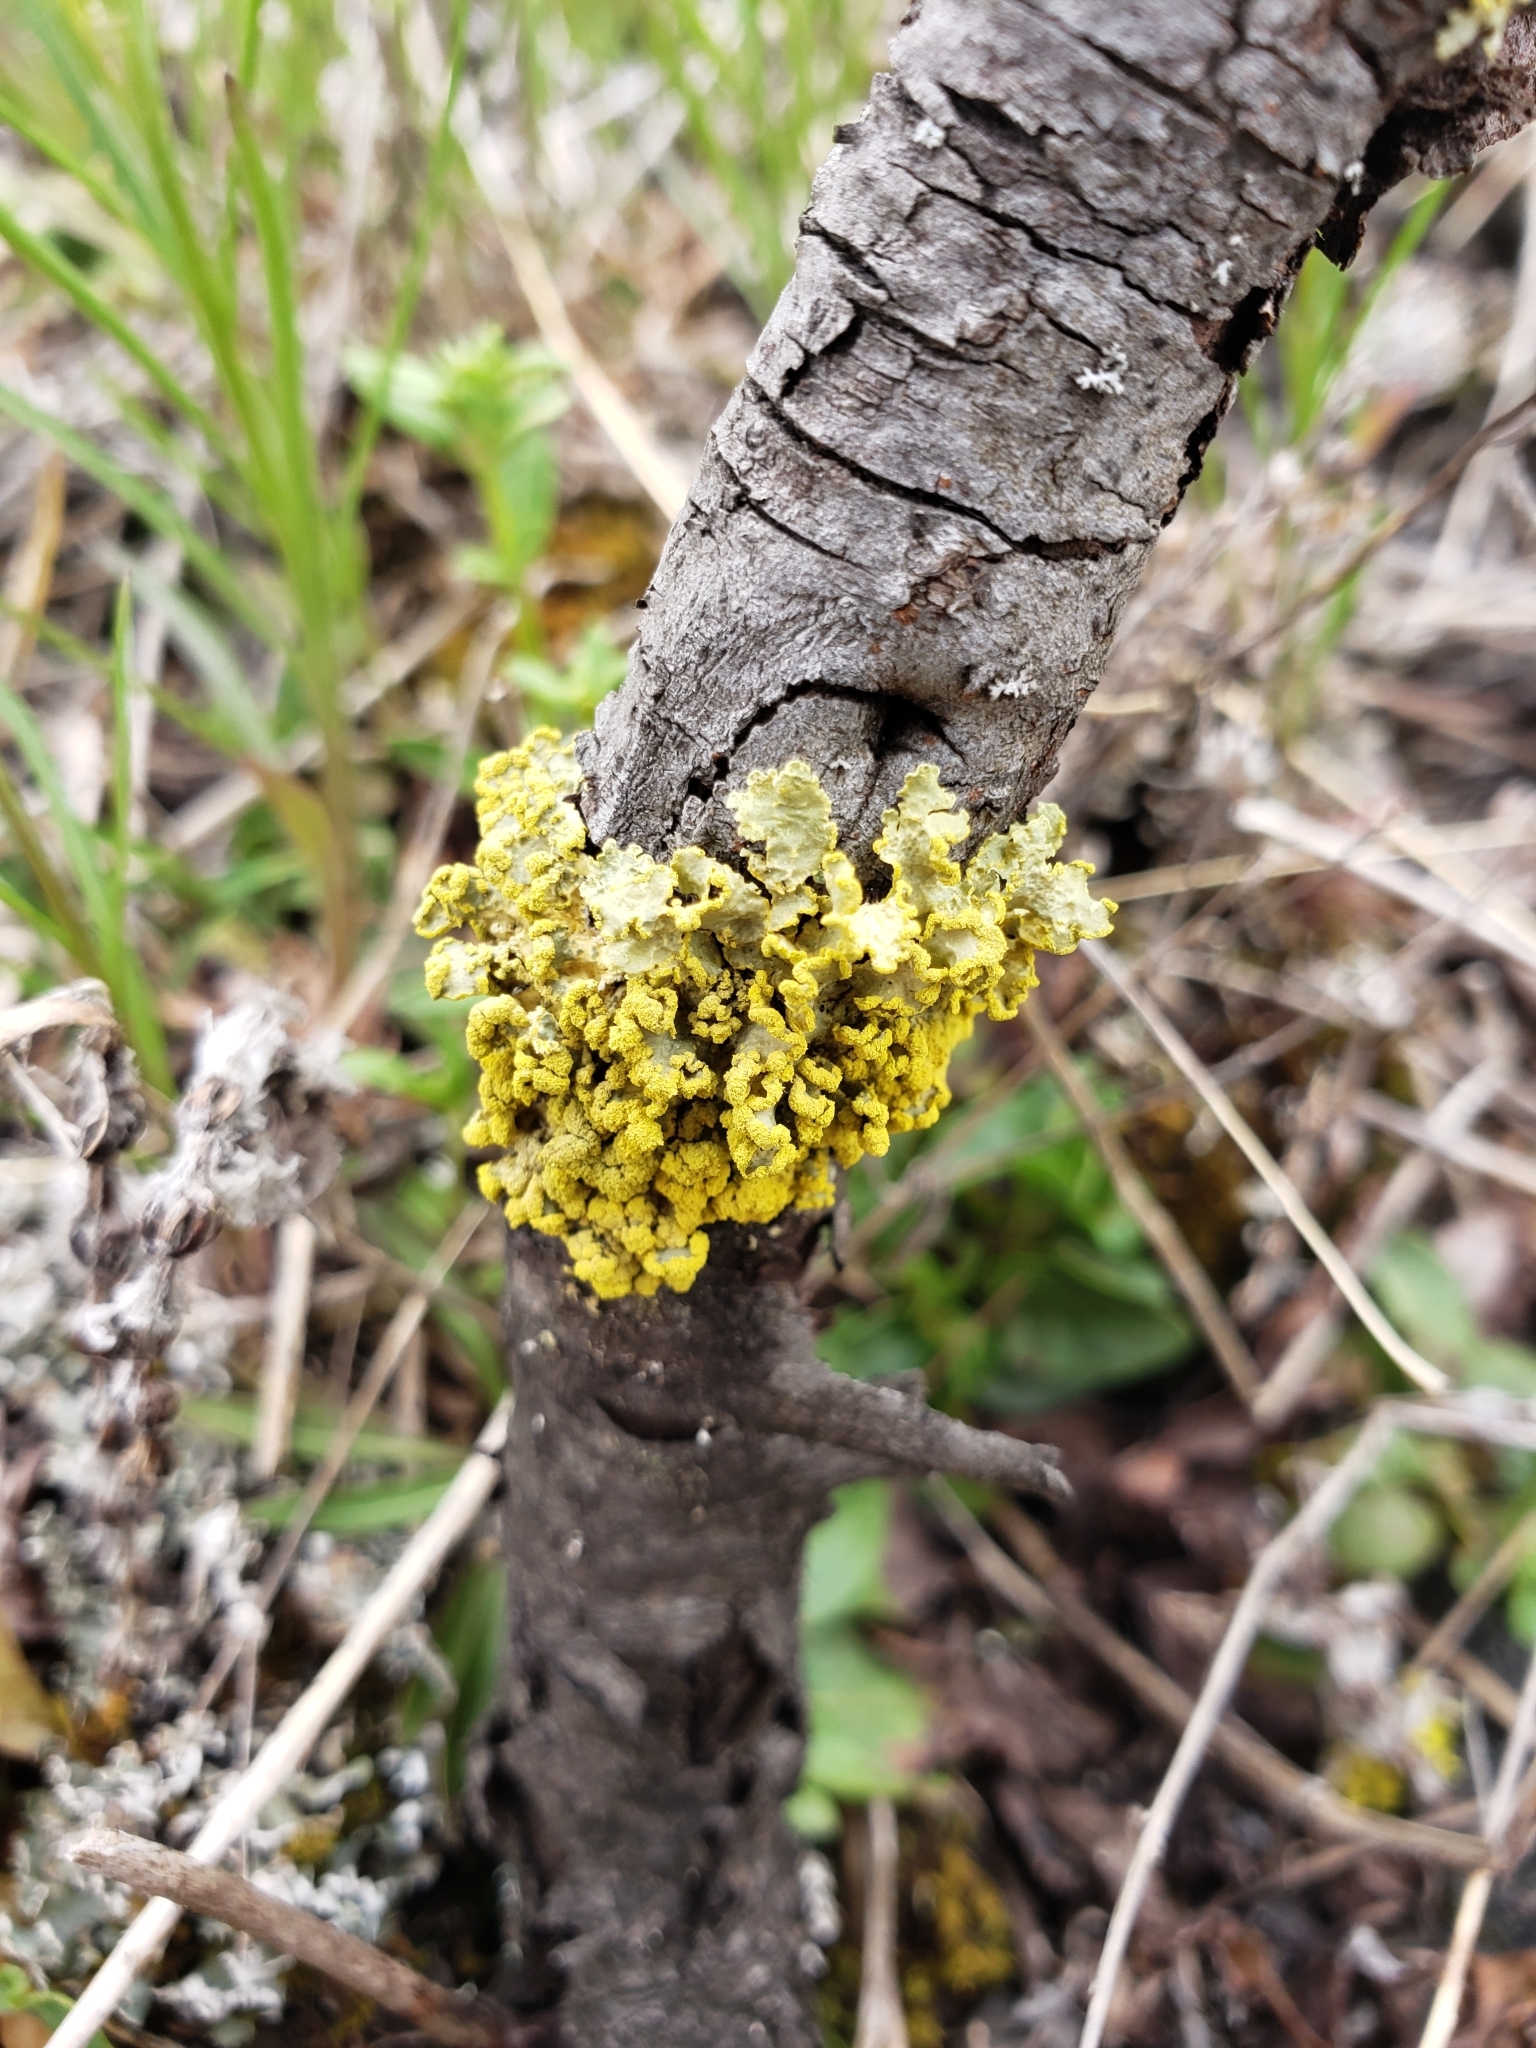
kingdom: Fungi
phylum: Ascomycota
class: Lecanoromycetes
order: Lecanorales
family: Parmeliaceae
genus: Vulpicida
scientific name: Vulpicida pinastri
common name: Powdered sunshine lichen
